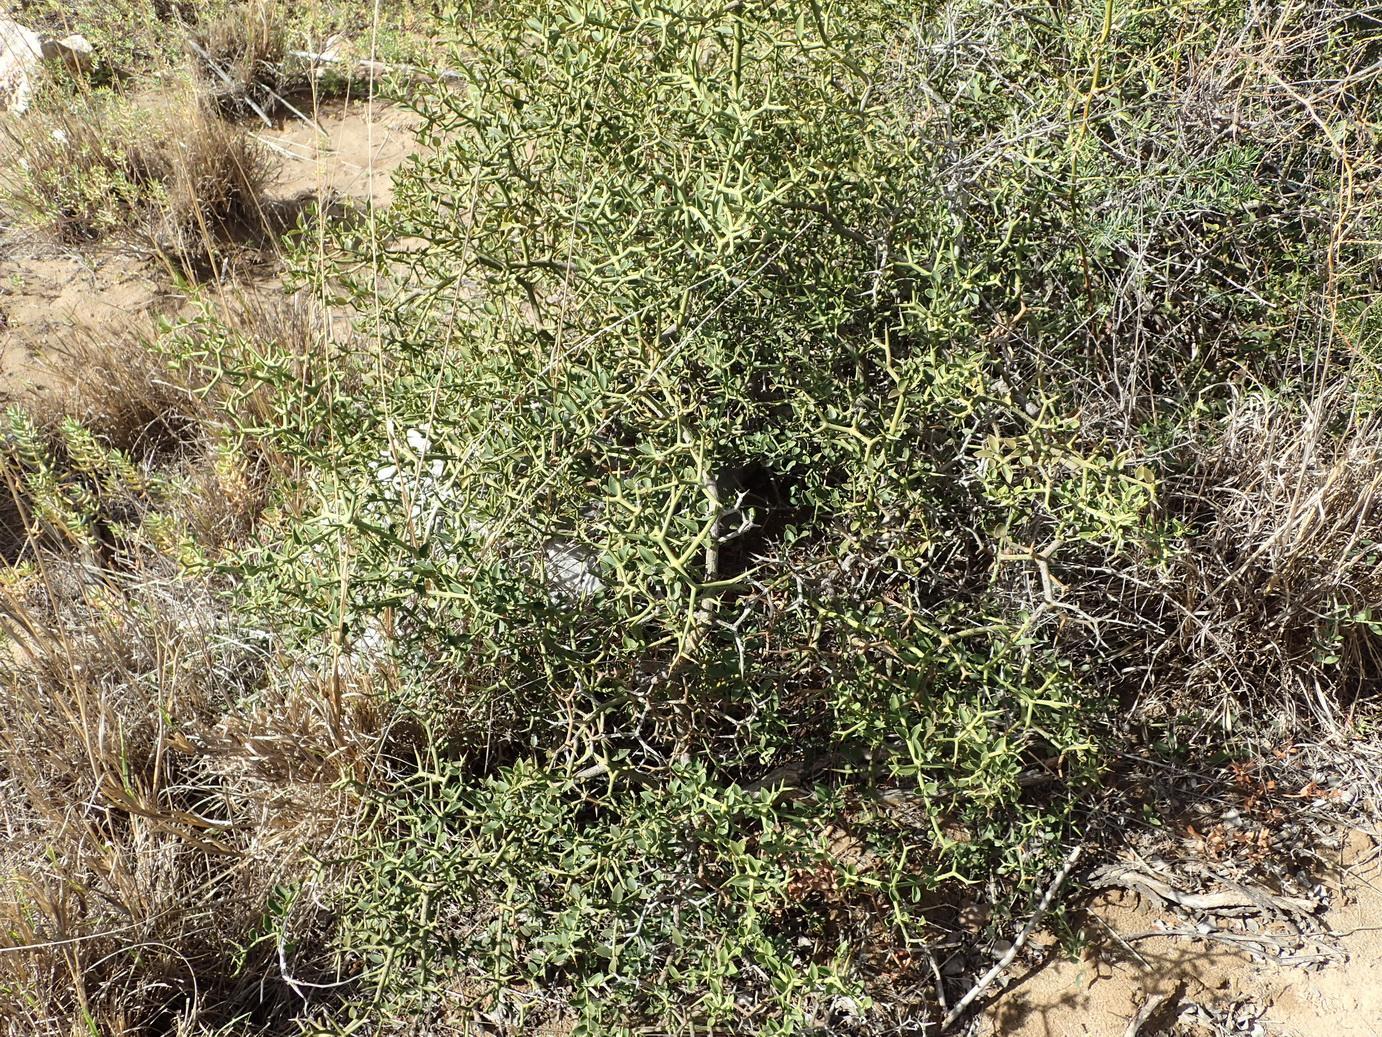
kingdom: Plantae
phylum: Tracheophyta
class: Magnoliopsida
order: Gentianales
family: Apocynaceae
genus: Carissa
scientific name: Carissa haematocarpa
